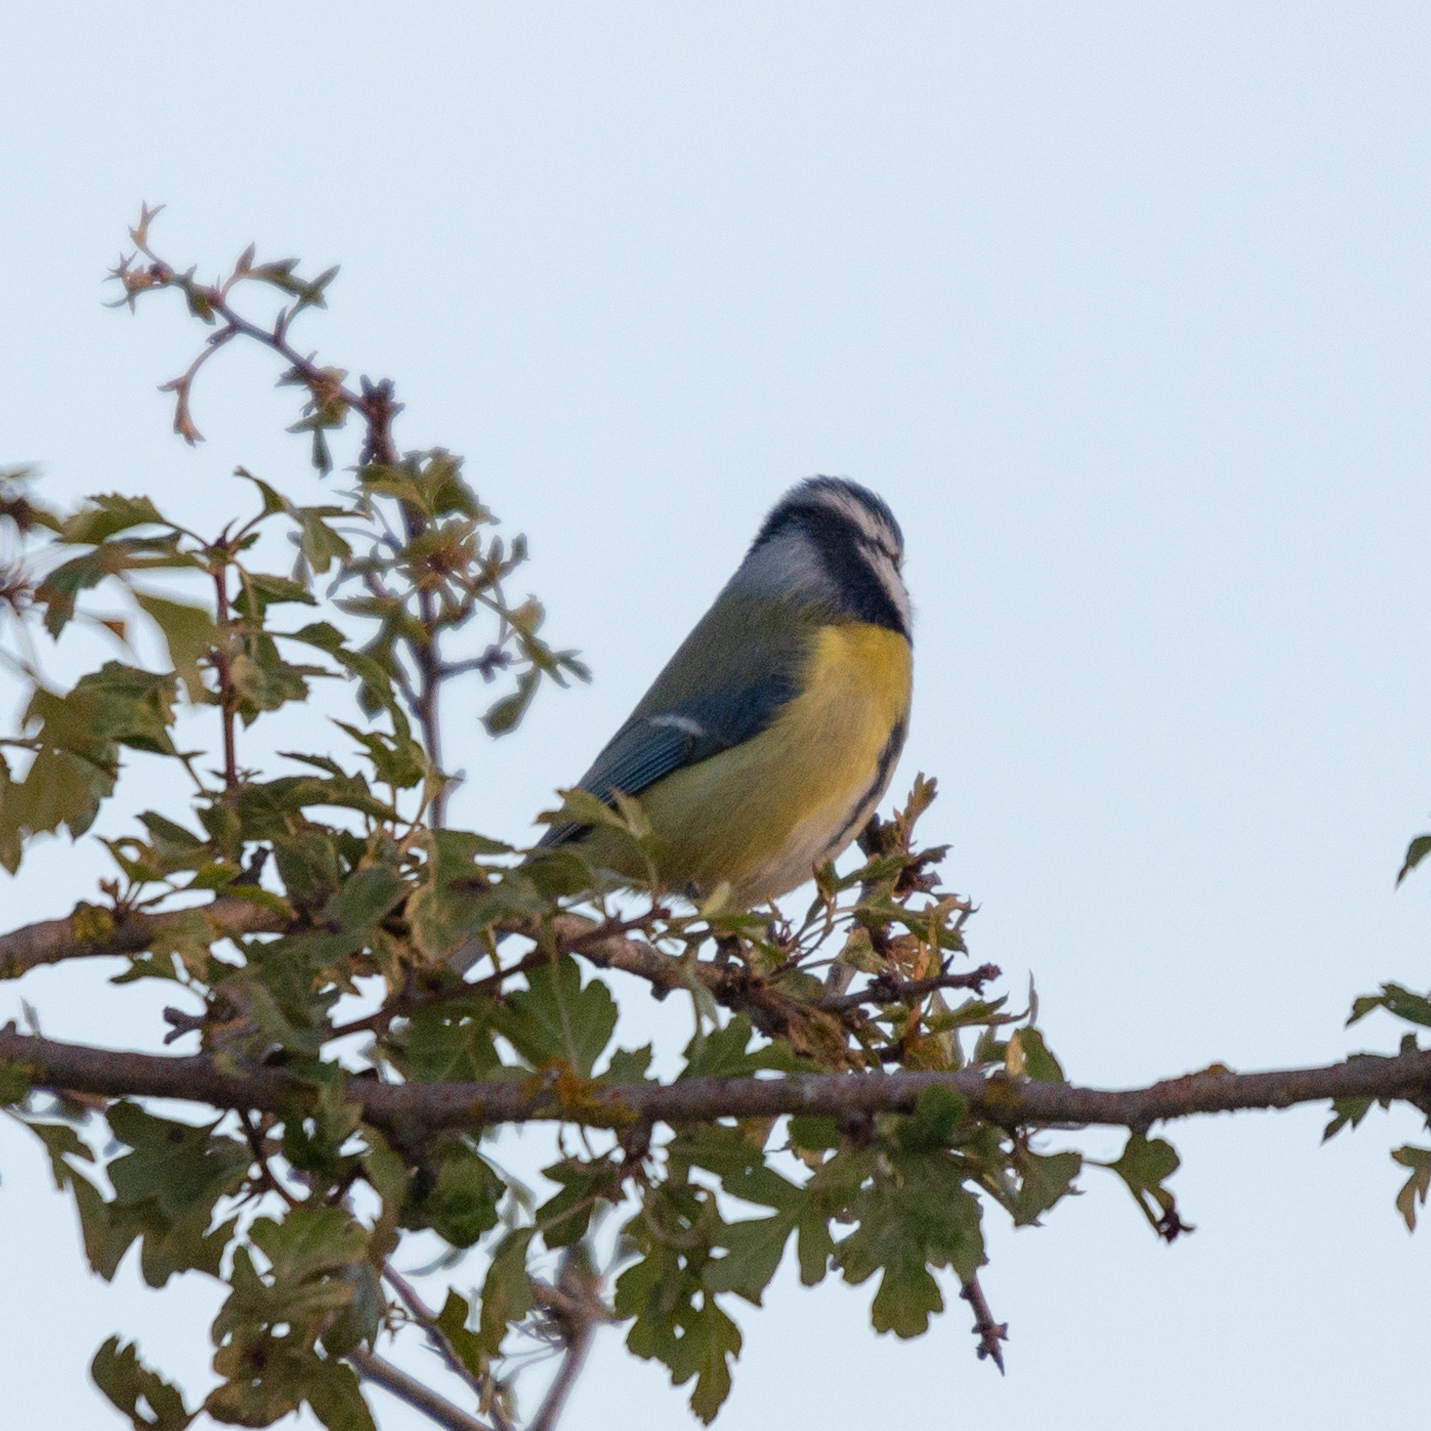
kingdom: Animalia
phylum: Chordata
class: Aves
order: Passeriformes
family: Paridae
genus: Cyanistes
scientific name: Cyanistes caeruleus
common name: Eurasian blue tit
